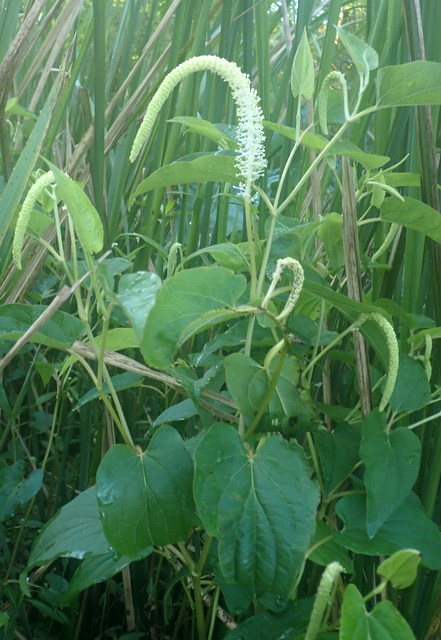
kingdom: Plantae
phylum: Tracheophyta
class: Magnoliopsida
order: Piperales
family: Saururaceae
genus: Saururus
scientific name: Saururus cernuus
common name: Lizard's-tail
